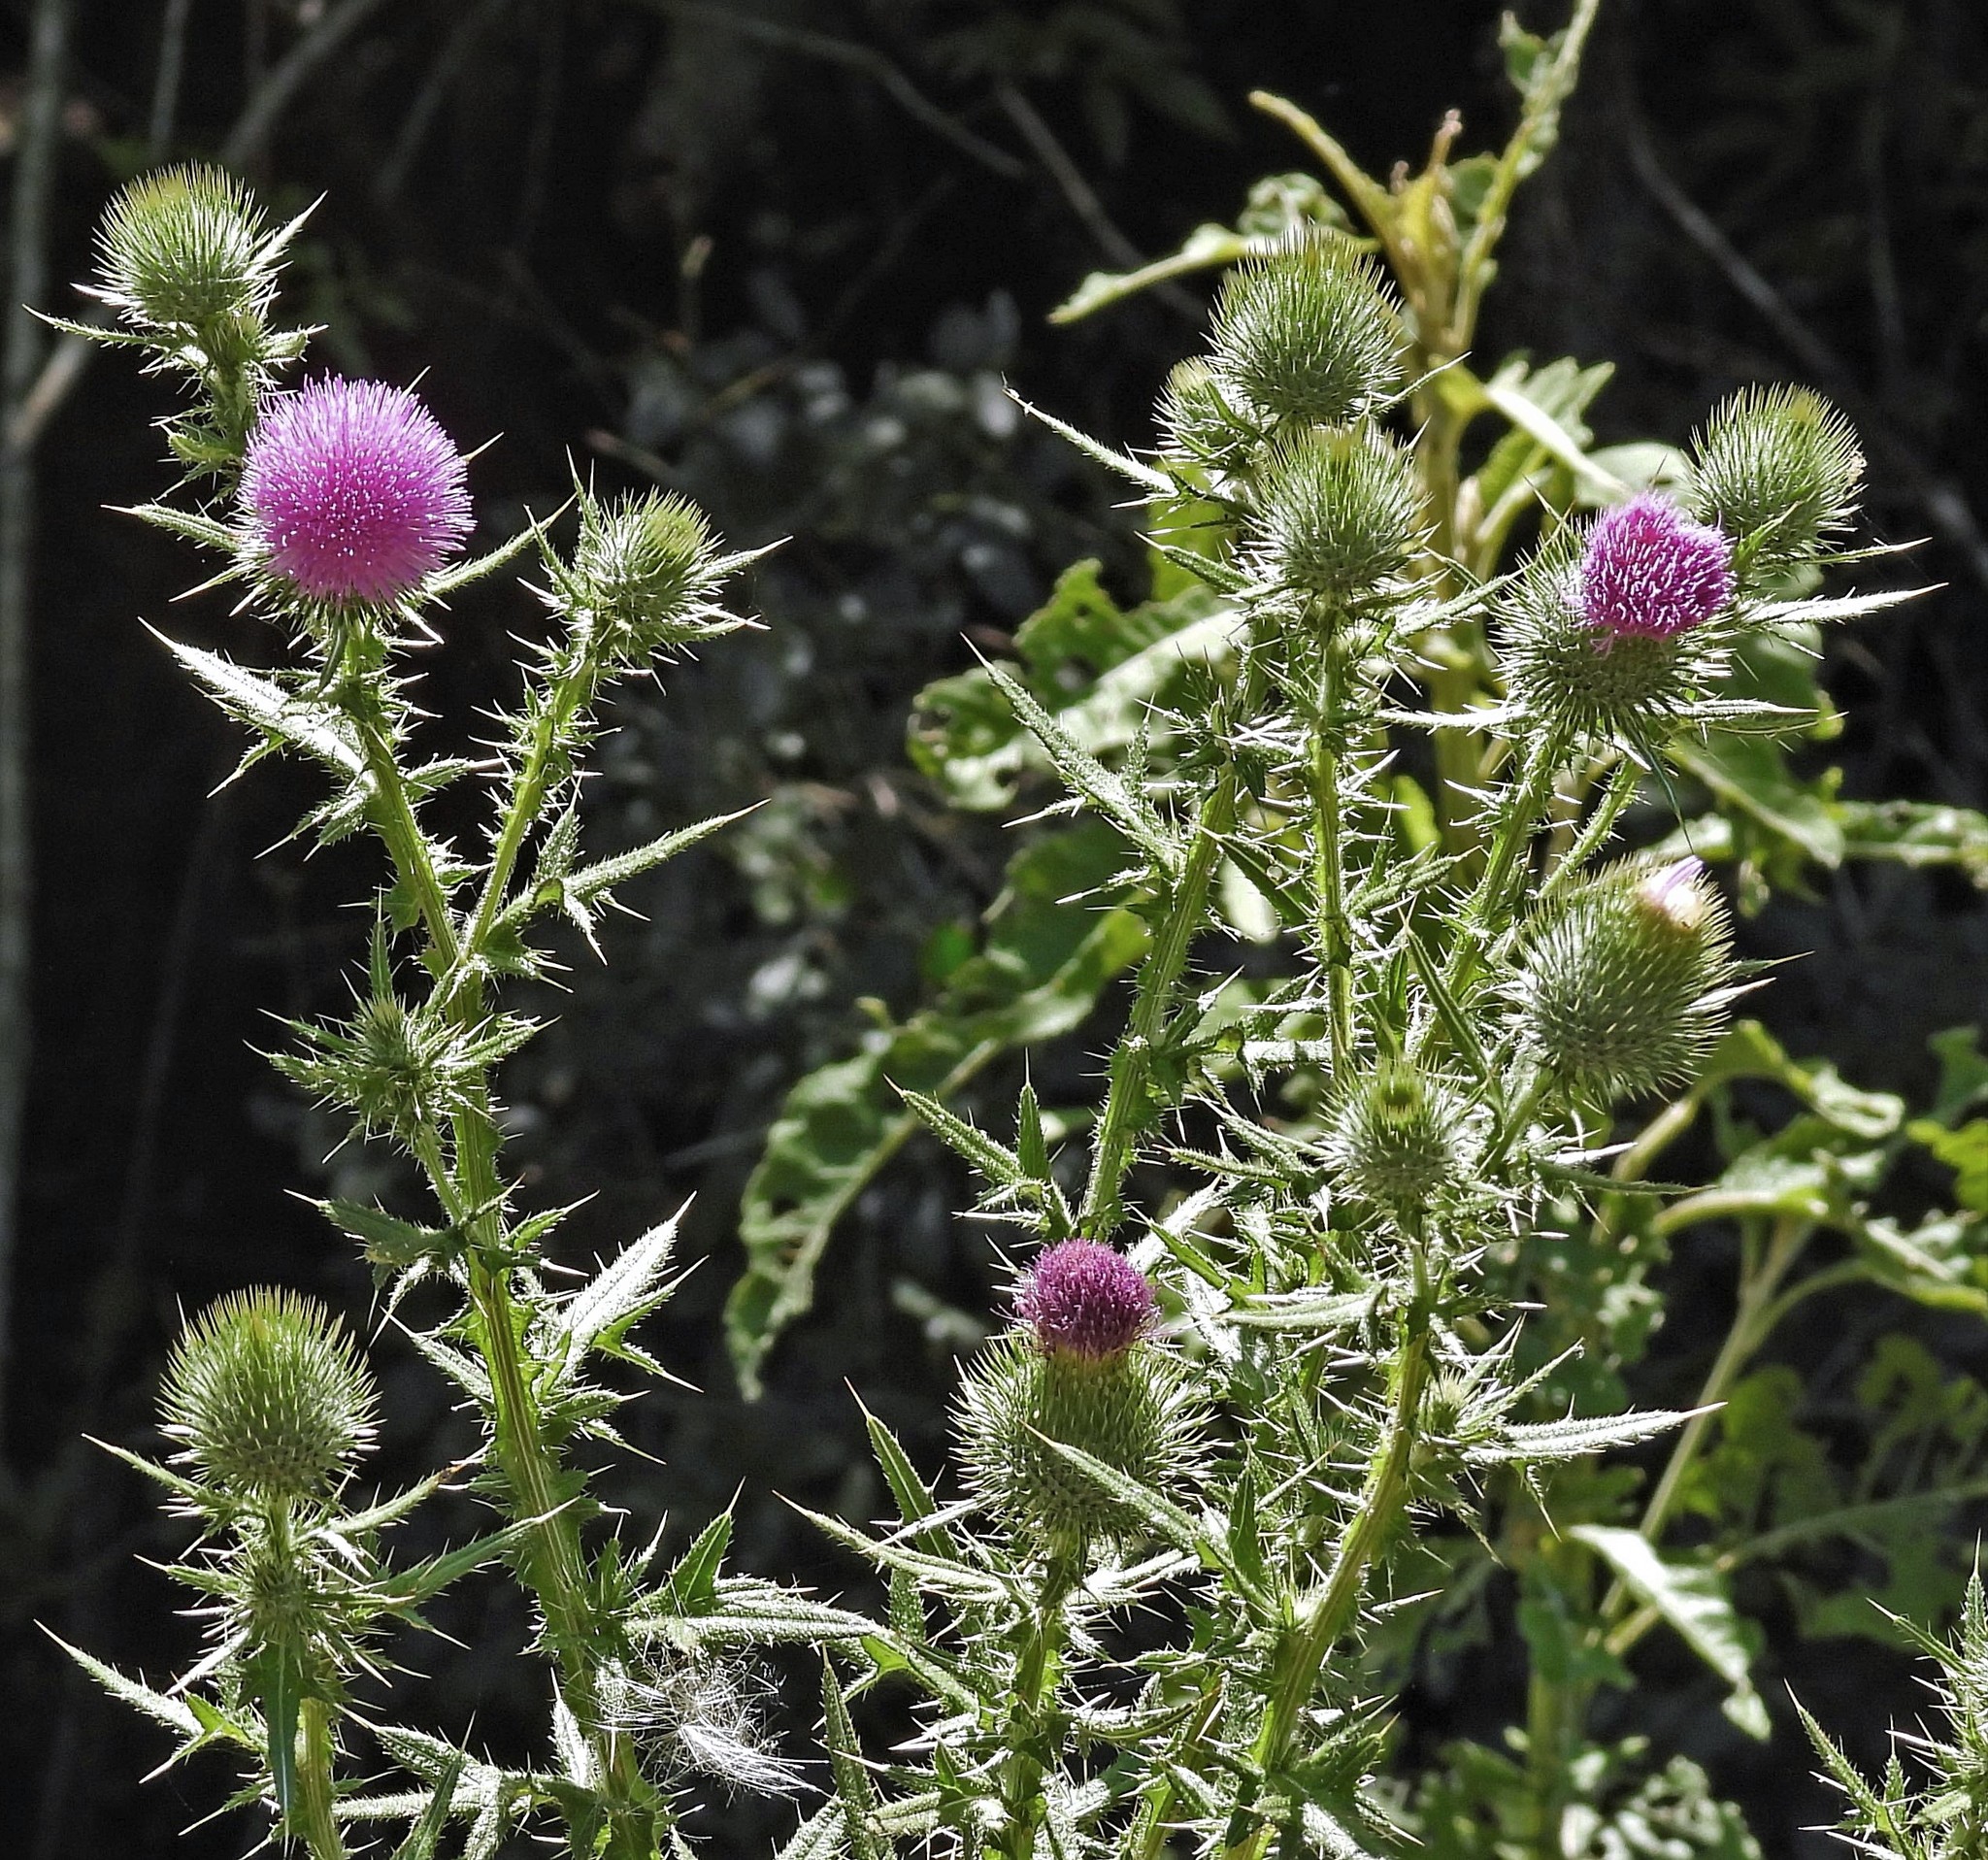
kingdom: Plantae
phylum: Tracheophyta
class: Magnoliopsida
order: Asterales
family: Asteraceae
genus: Cirsium
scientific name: Cirsium vulgare
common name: Bull thistle
